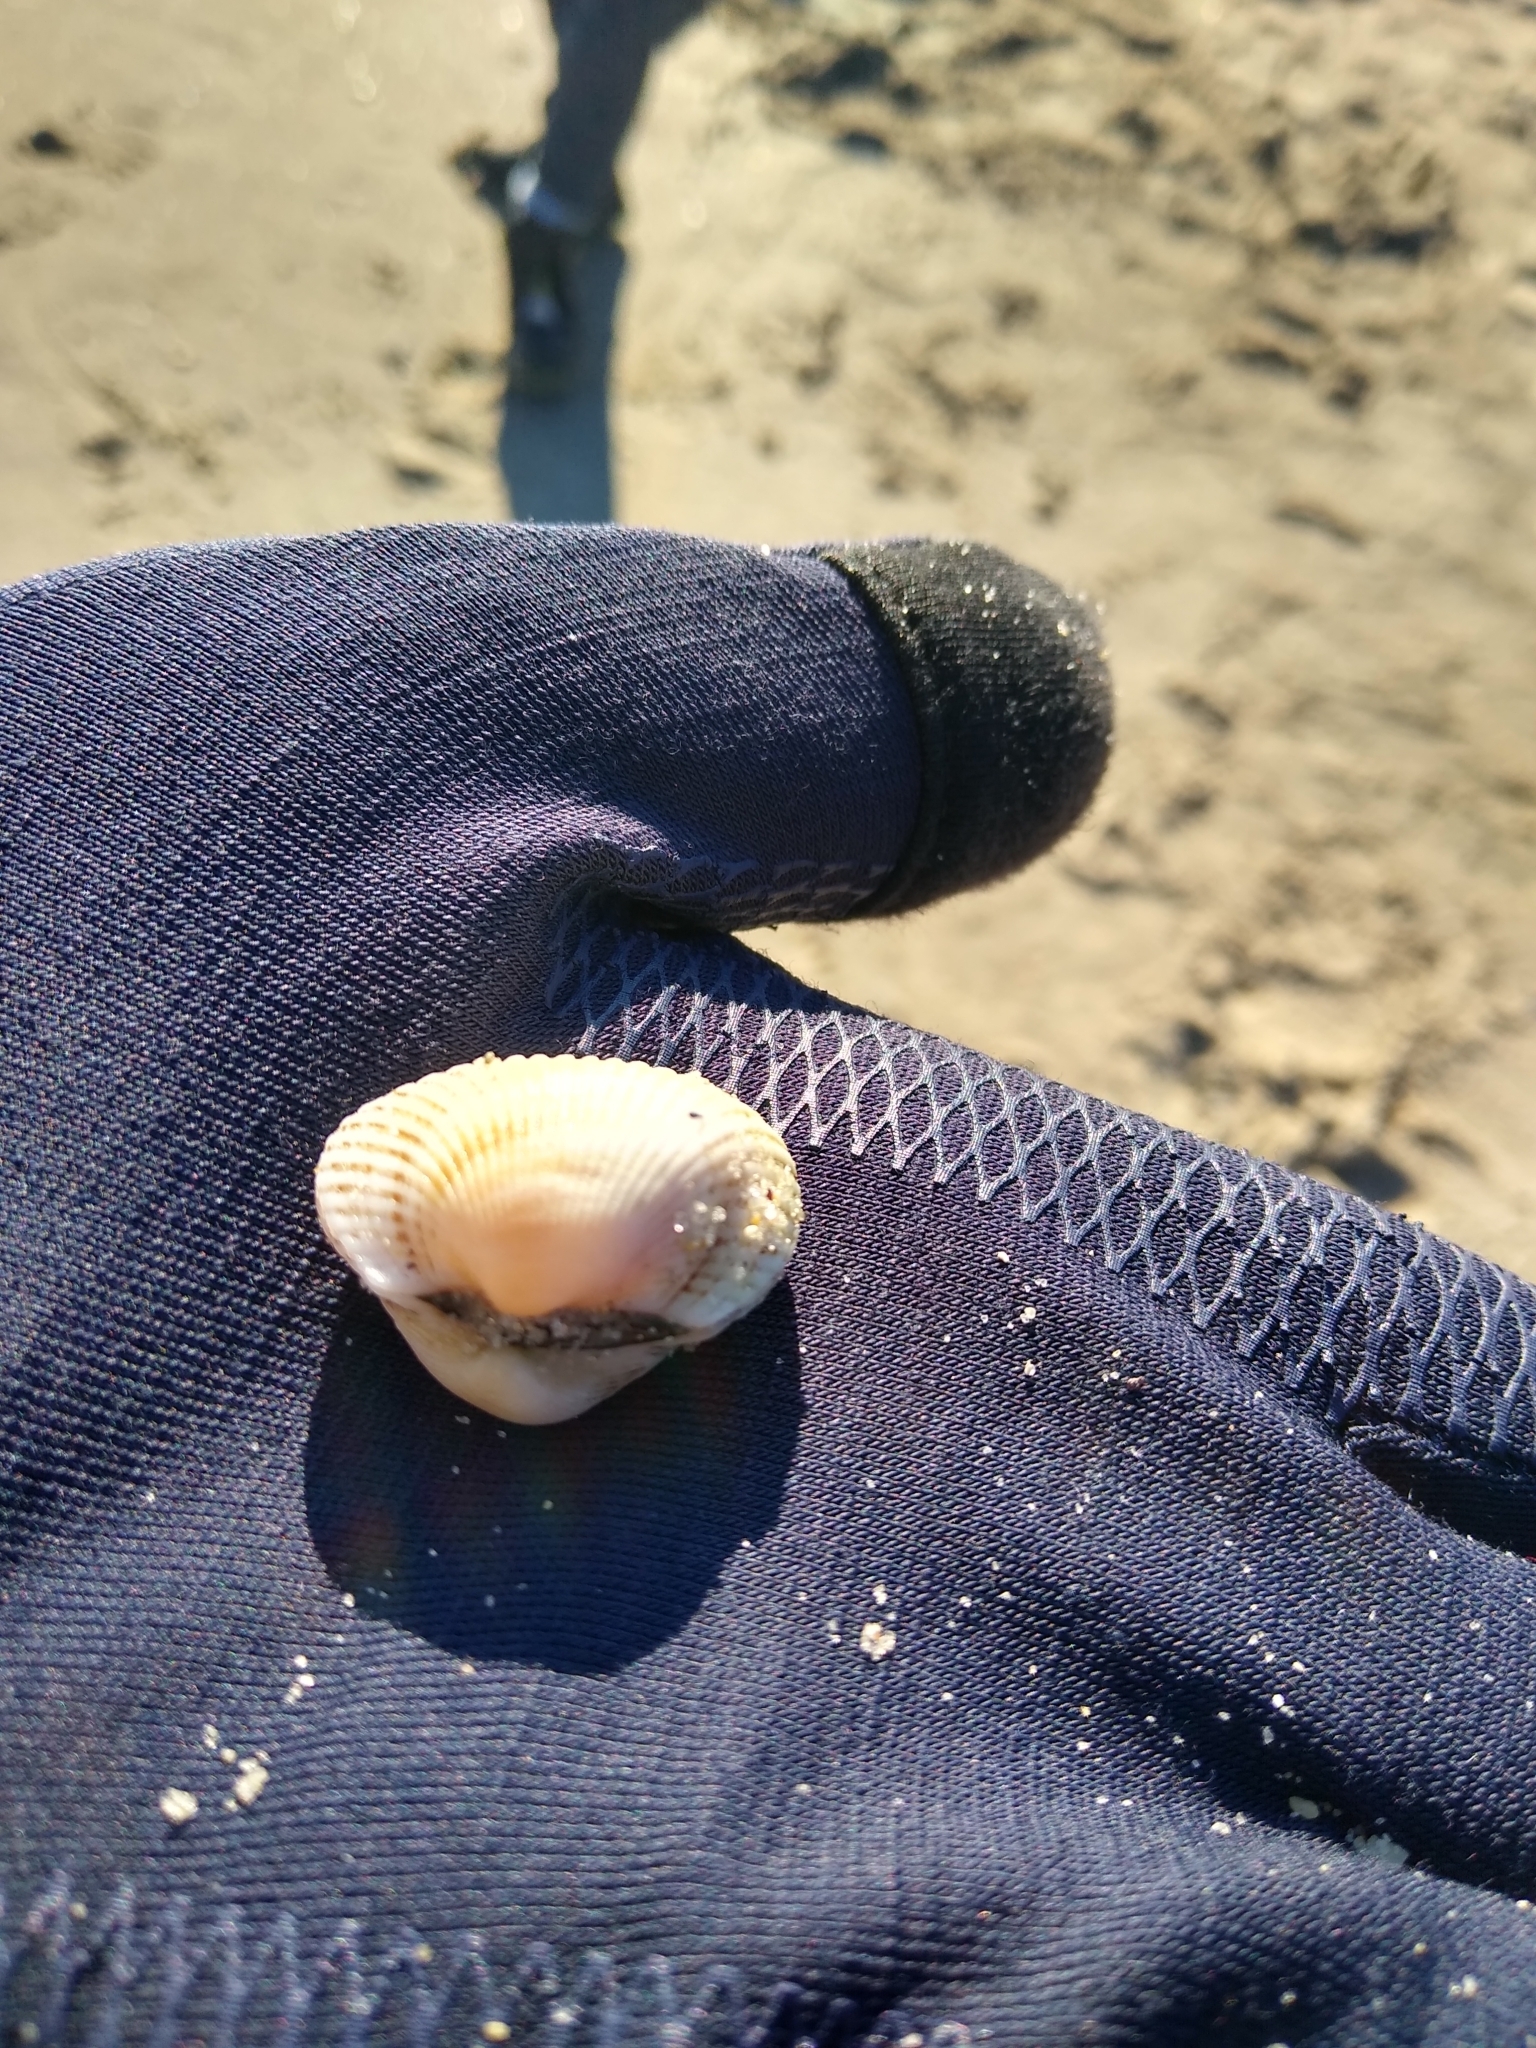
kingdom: Animalia
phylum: Mollusca
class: Bivalvia
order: Arcida
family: Arcidae
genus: Anadara
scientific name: Anadara kagoshimensis
